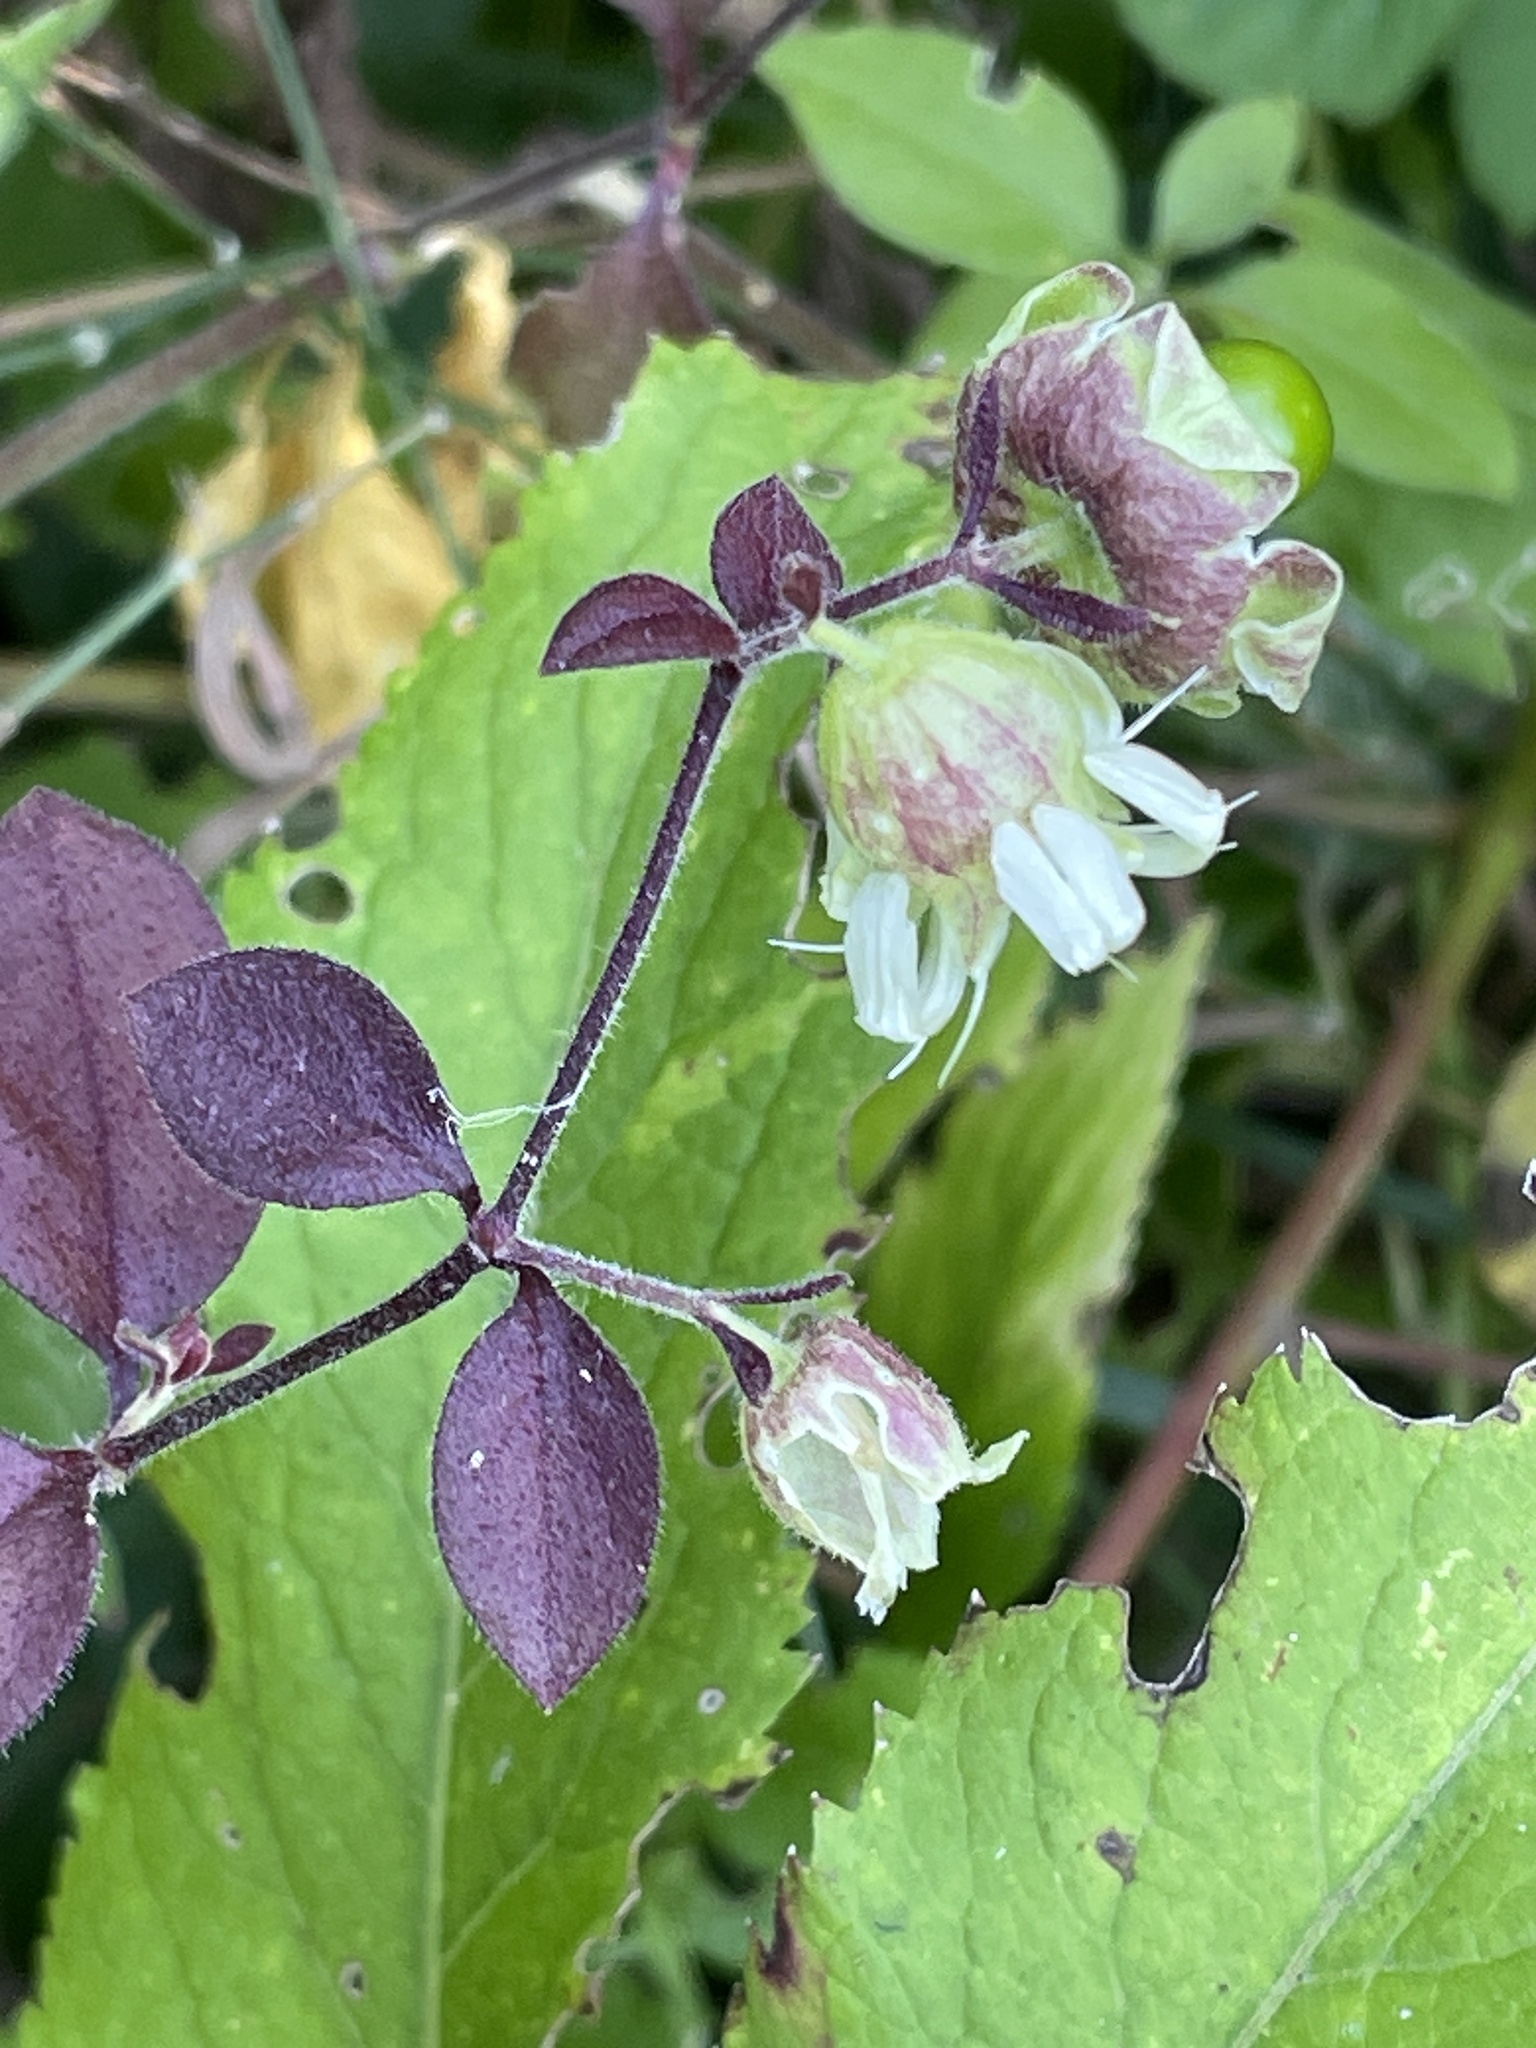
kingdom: Plantae
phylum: Tracheophyta
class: Magnoliopsida
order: Caryophyllales
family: Caryophyllaceae
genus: Silene
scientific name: Silene baccifera
